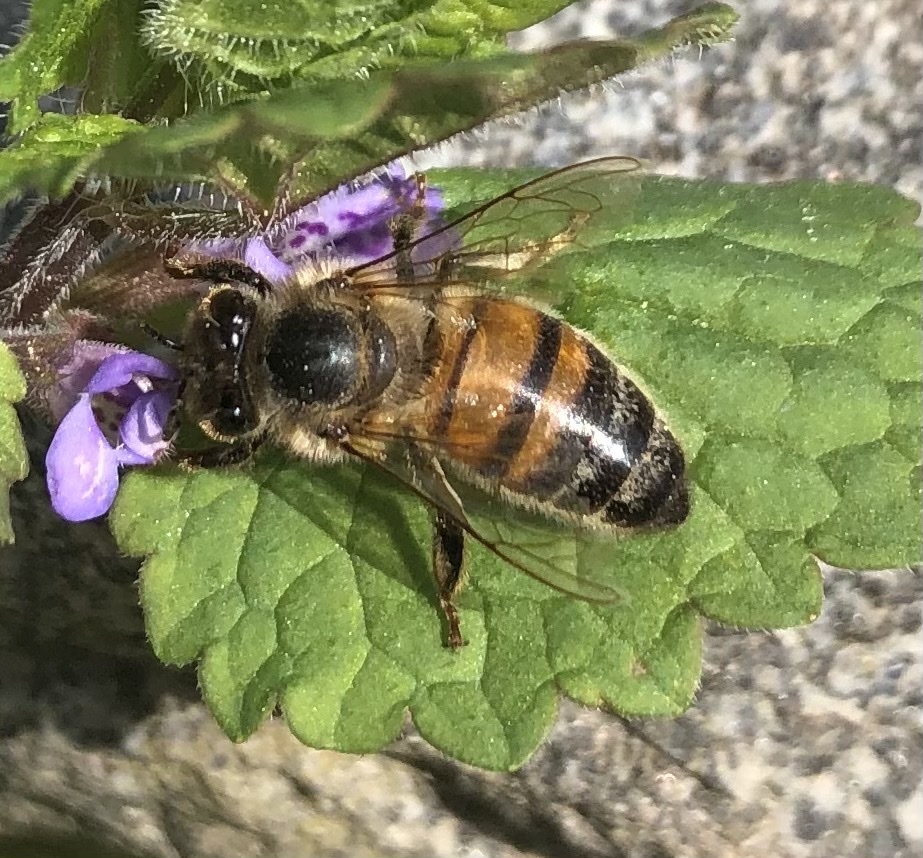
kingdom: Animalia
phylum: Arthropoda
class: Insecta
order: Hymenoptera
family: Apidae
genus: Apis
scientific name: Apis mellifera
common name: Honey bee
